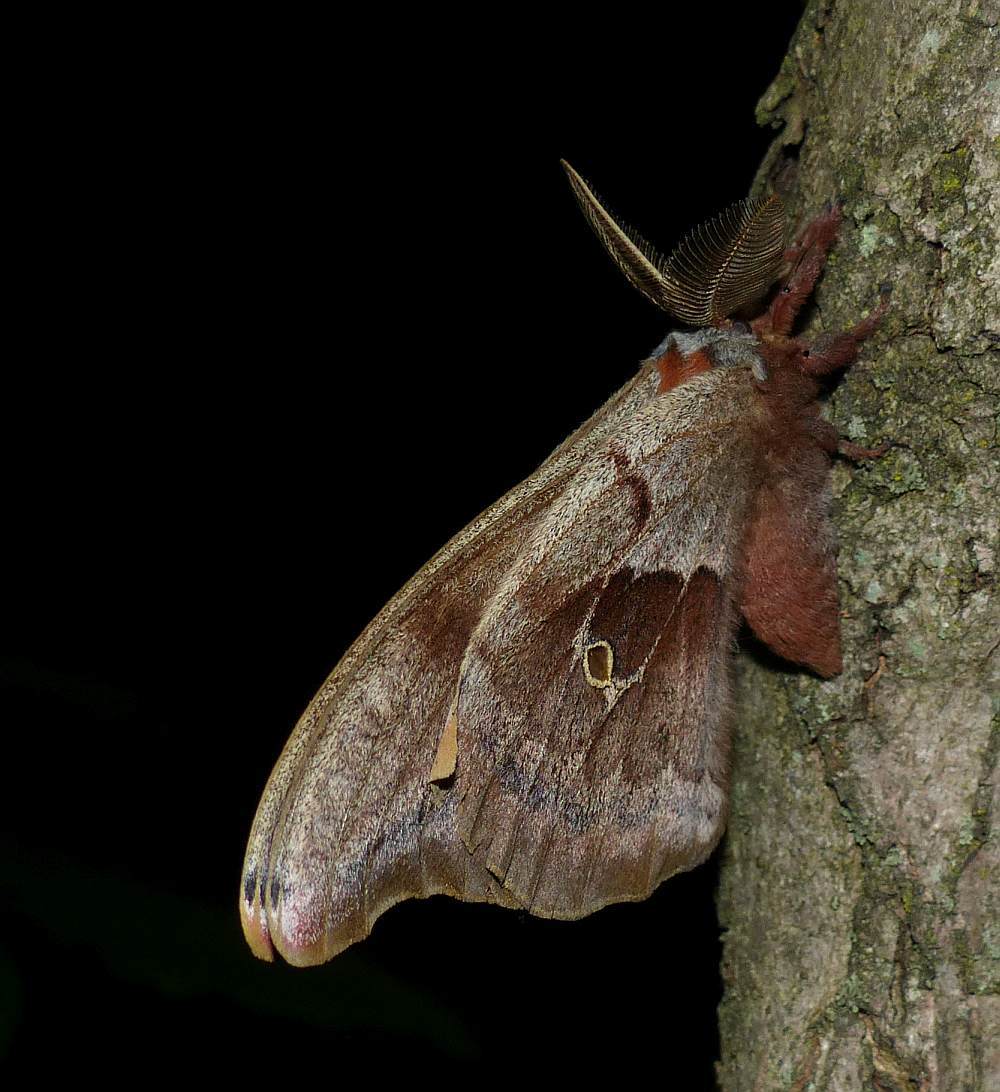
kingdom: Animalia
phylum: Arthropoda
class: Insecta
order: Lepidoptera
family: Saturniidae
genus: Antheraea
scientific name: Antheraea polyphemus
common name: Polyphemus moth
